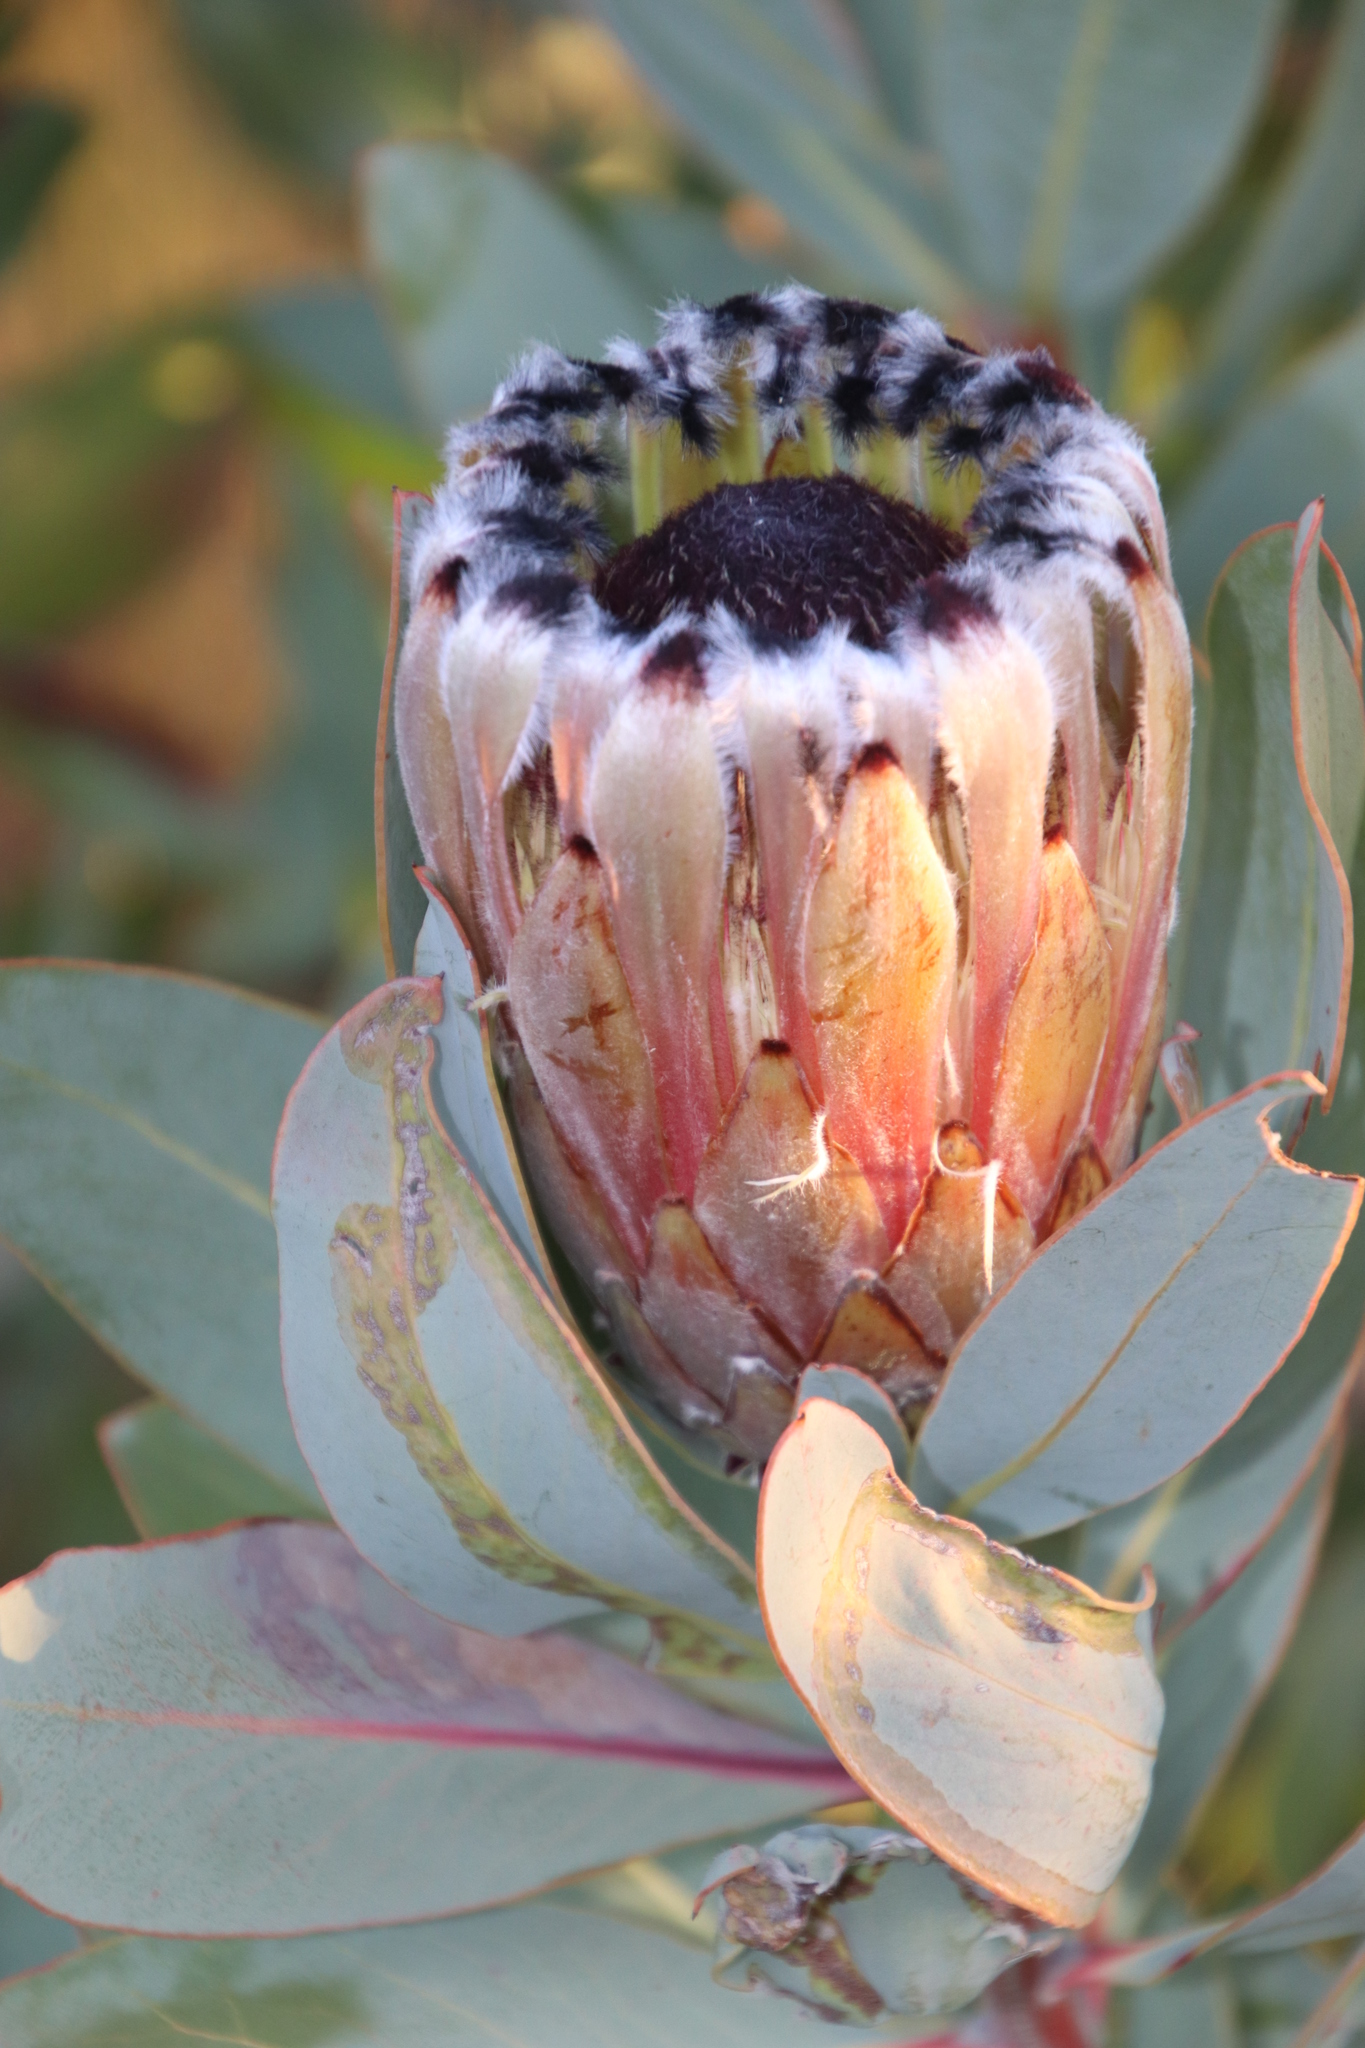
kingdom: Plantae
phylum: Tracheophyta
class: Magnoliopsida
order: Proteales
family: Proteaceae
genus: Protea
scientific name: Protea laurifolia
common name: Grey-leaf sugarbsh
